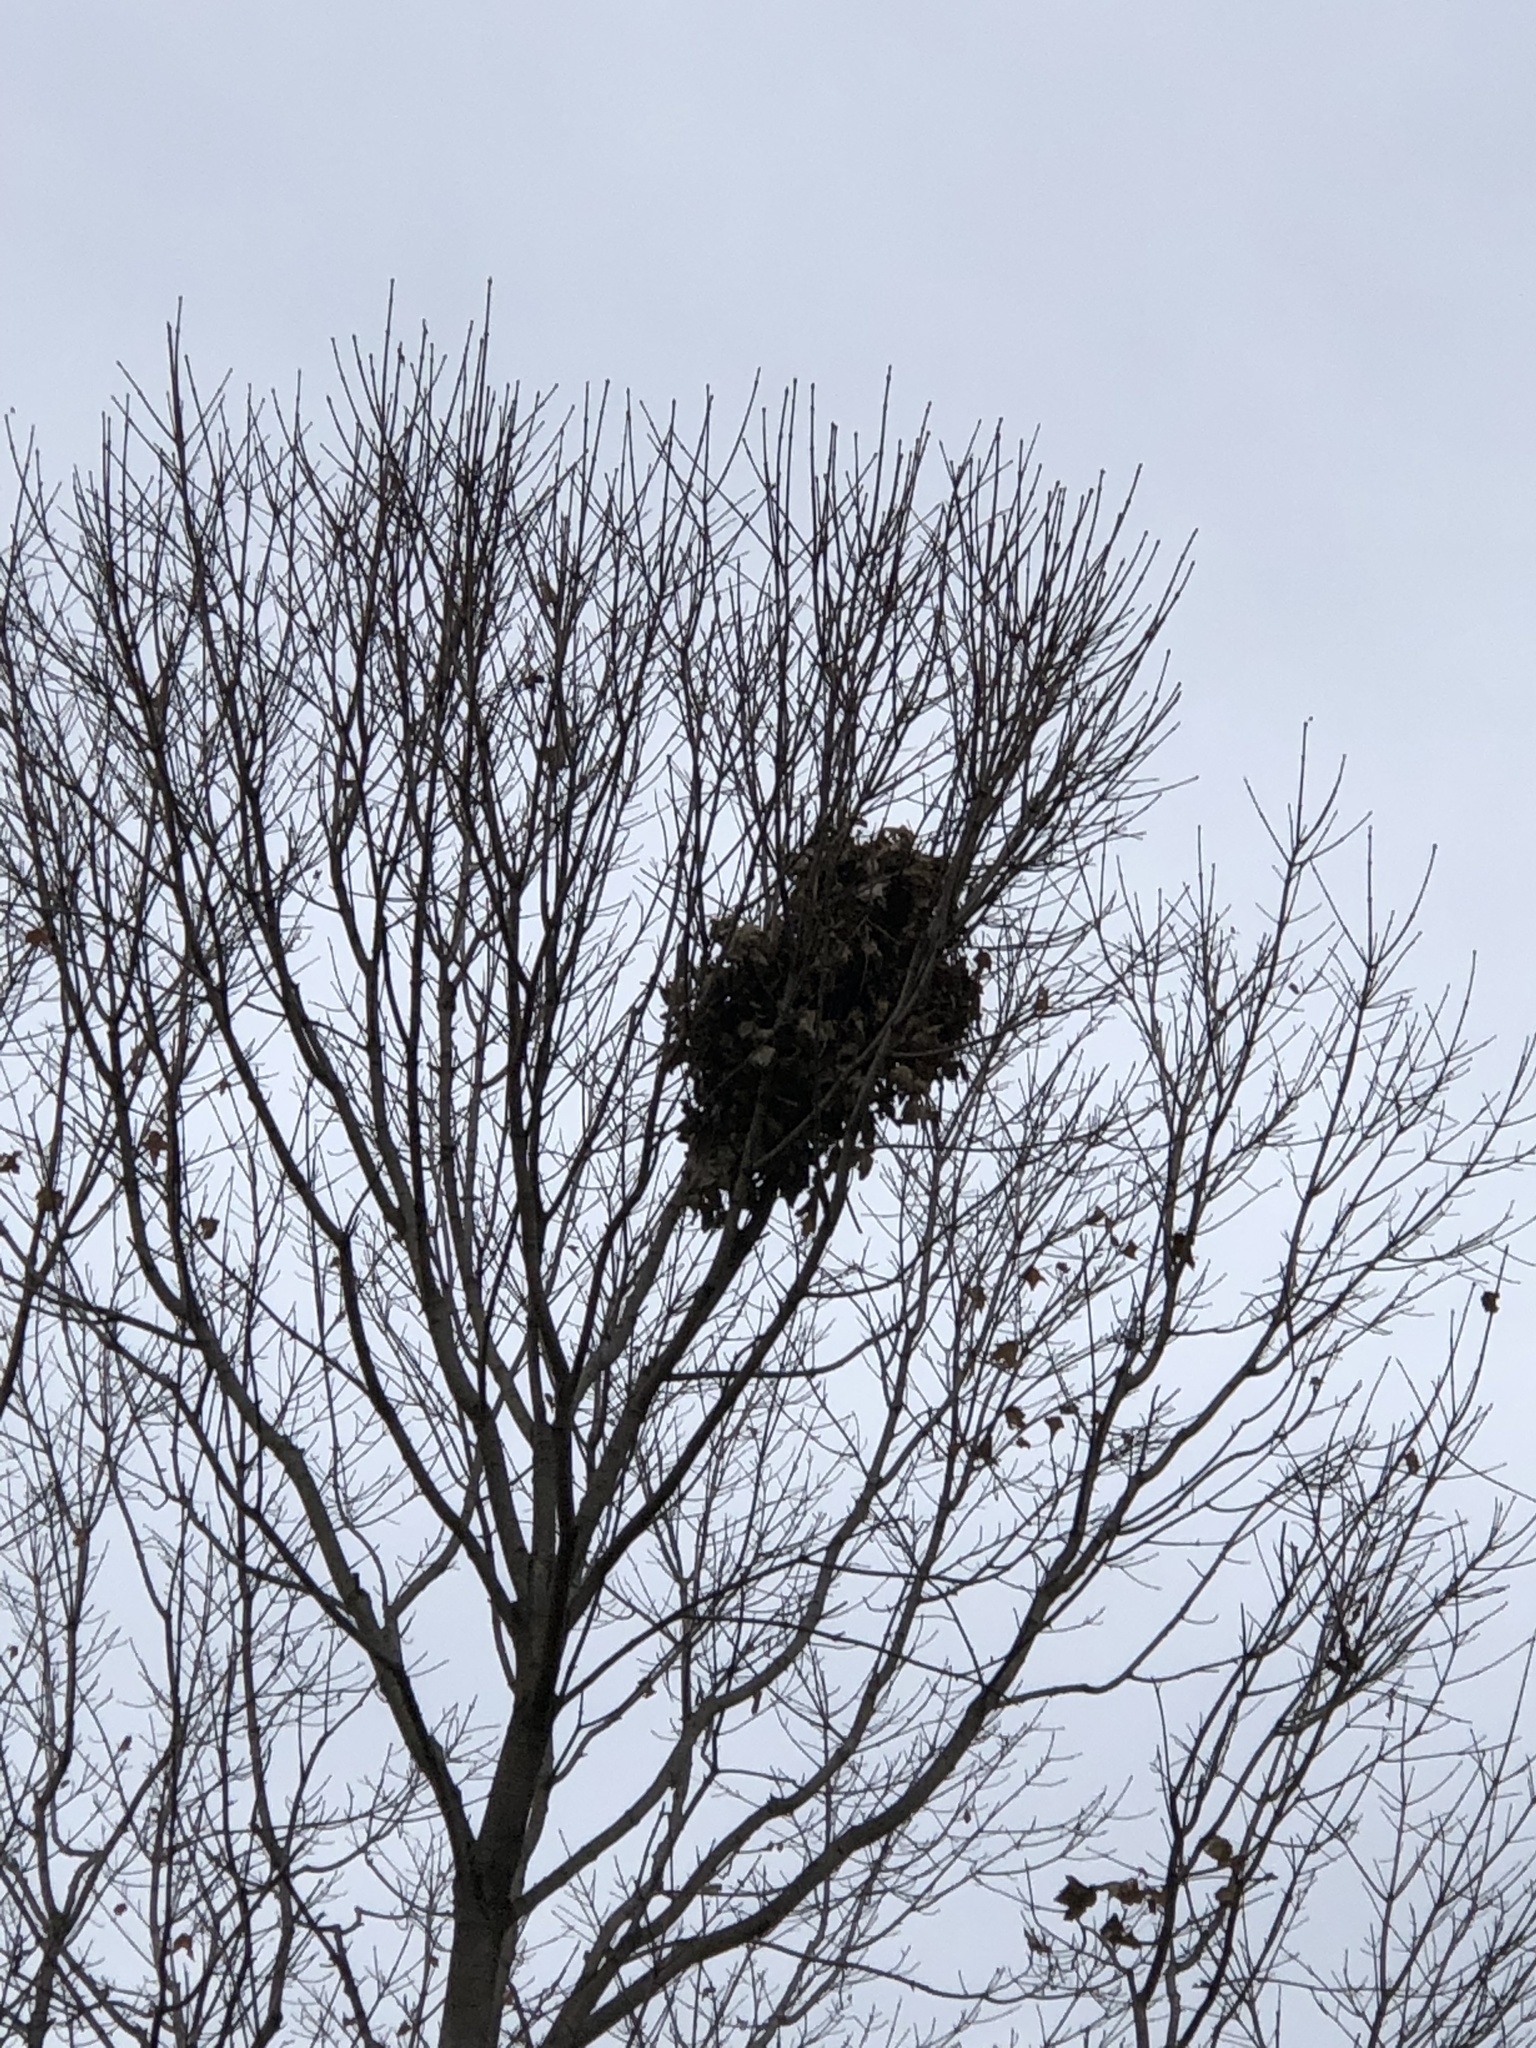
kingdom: Animalia
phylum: Chordata
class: Mammalia
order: Rodentia
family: Sciuridae
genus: Sciurus
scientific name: Sciurus carolinensis
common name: Eastern gray squirrel
